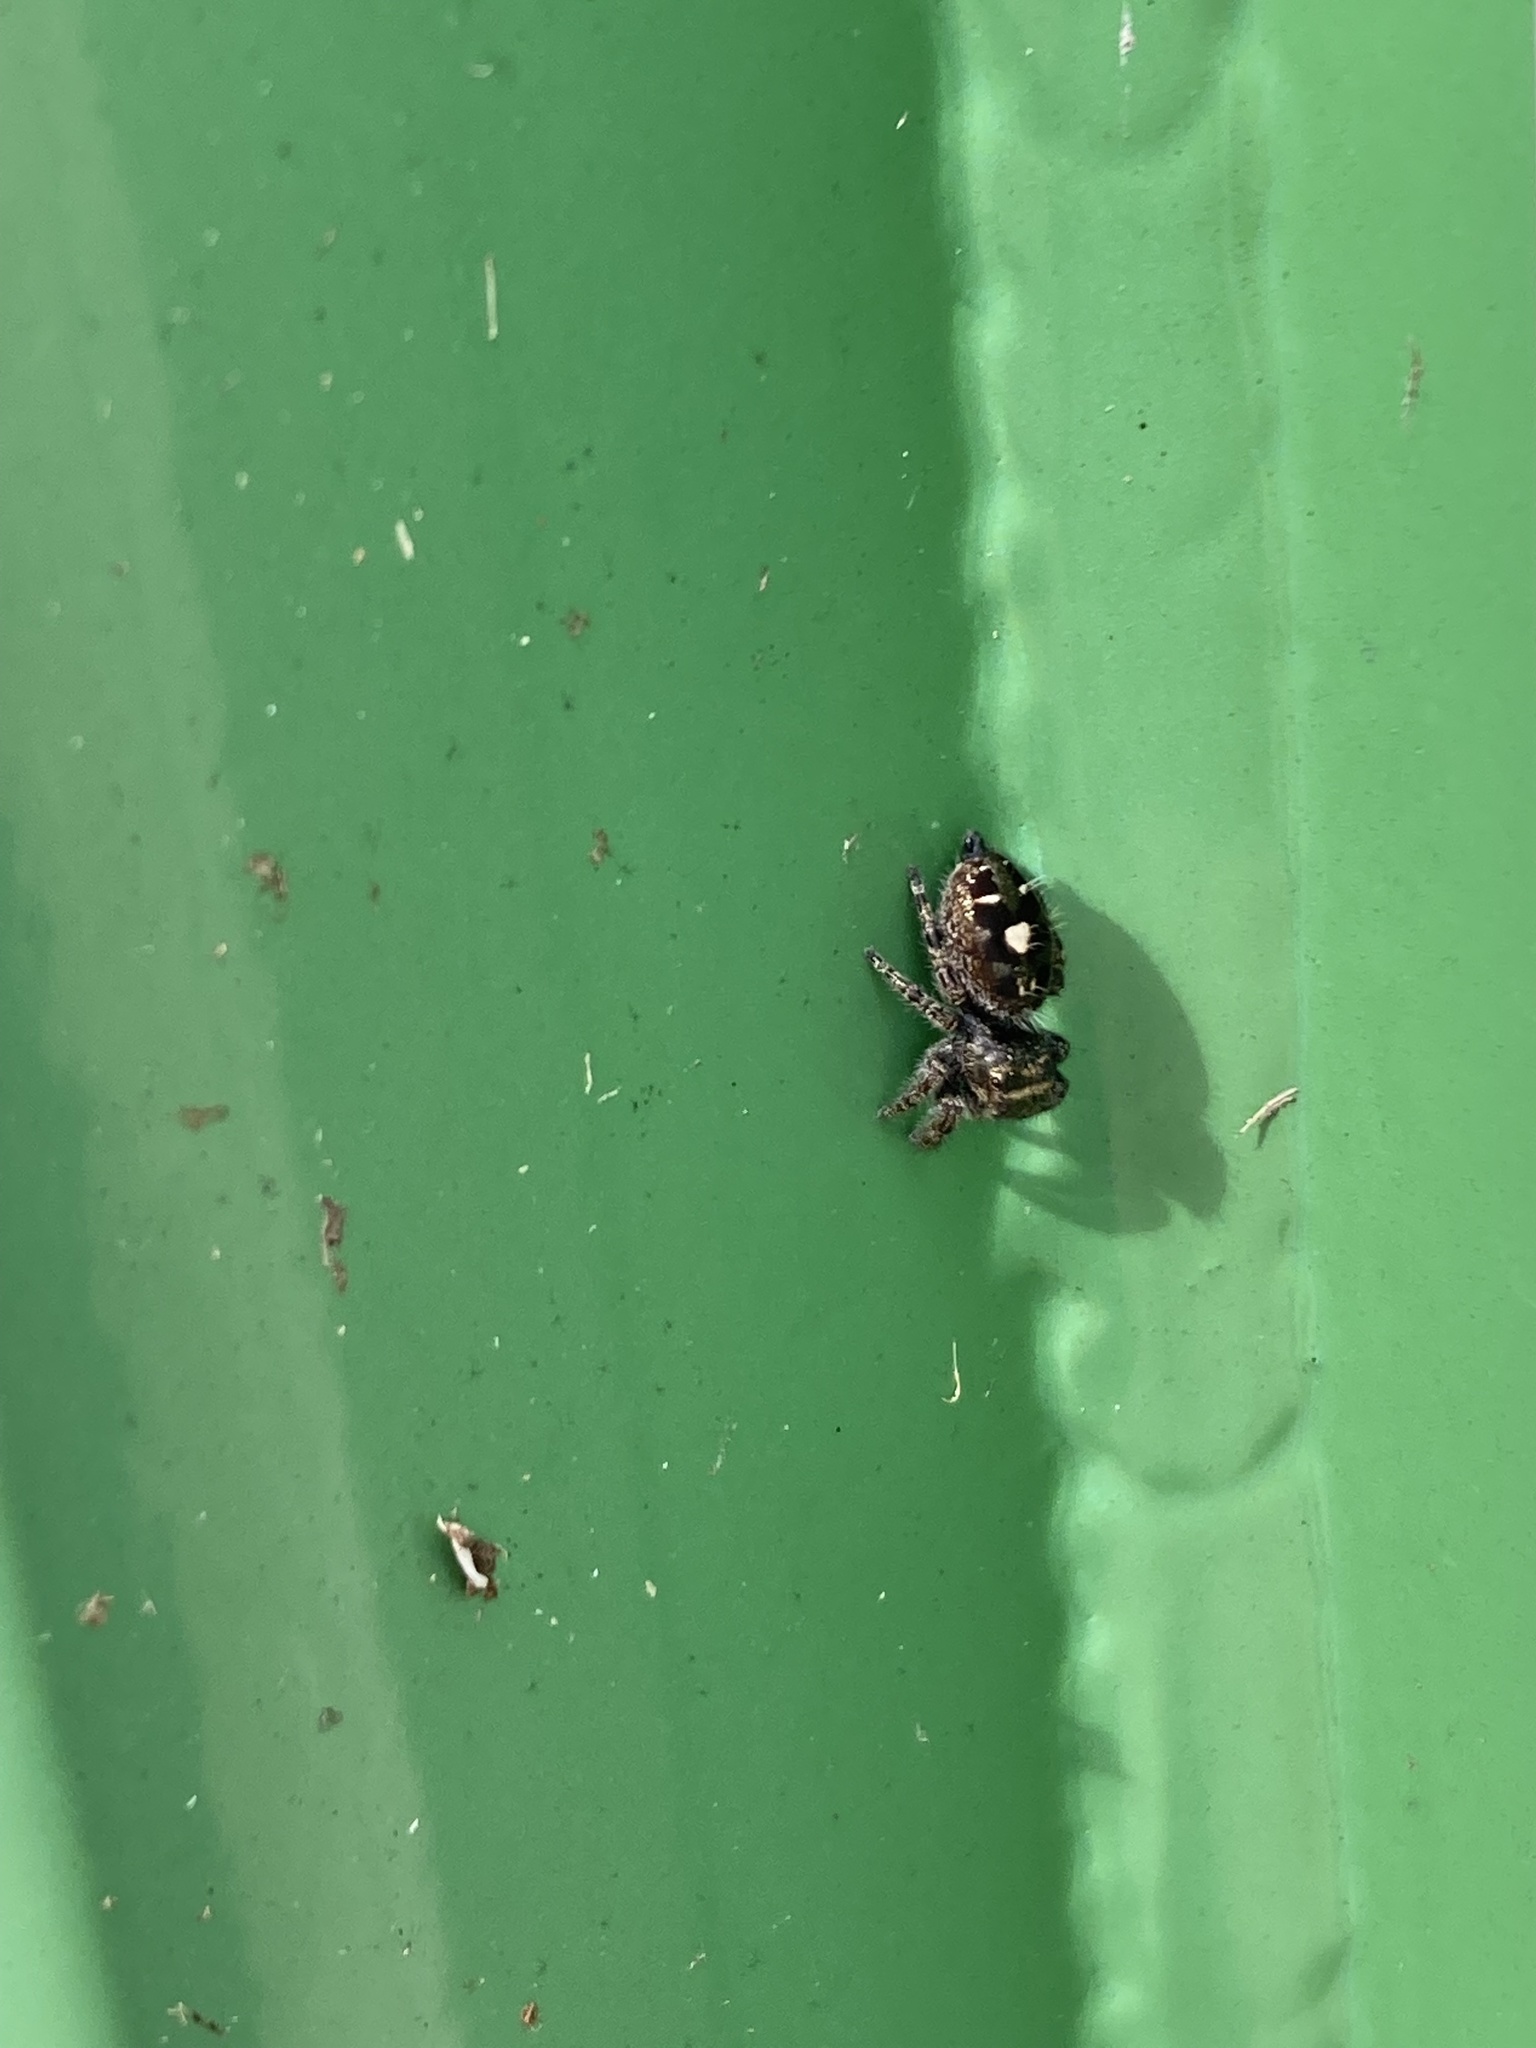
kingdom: Animalia
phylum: Arthropoda
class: Arachnida
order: Araneae
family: Salticidae
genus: Phidippus
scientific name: Phidippus audax
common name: Bold jumper
